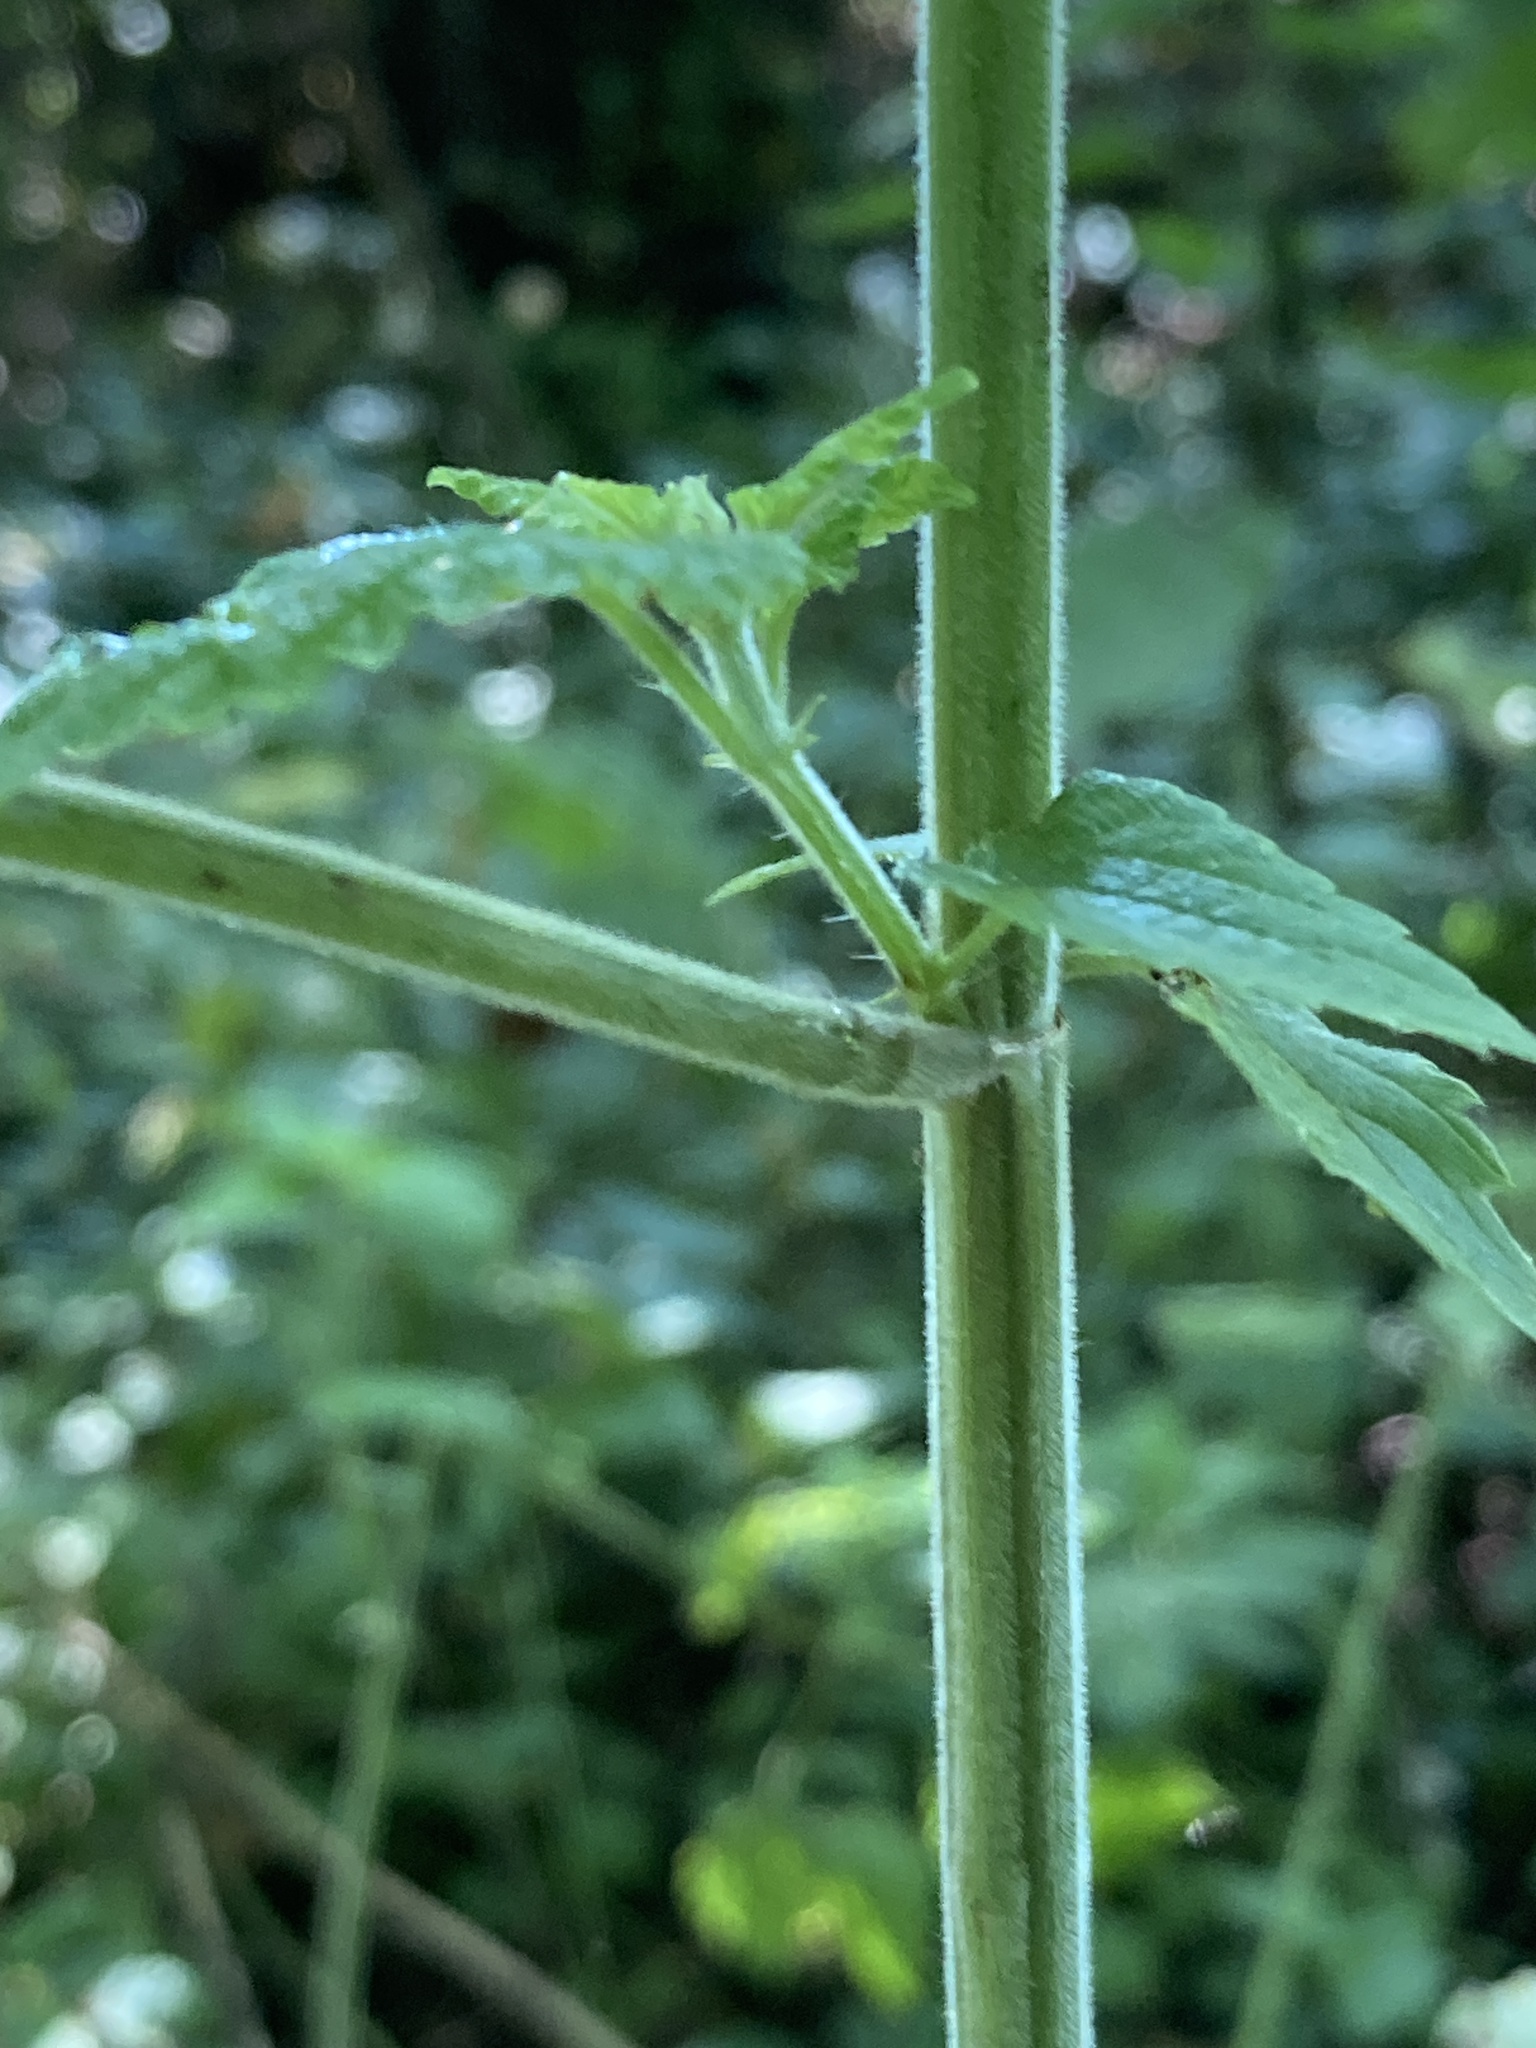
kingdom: Plantae
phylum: Tracheophyta
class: Magnoliopsida
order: Rosales
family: Urticaceae
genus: Urtica
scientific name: Urtica dioica
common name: Common nettle
